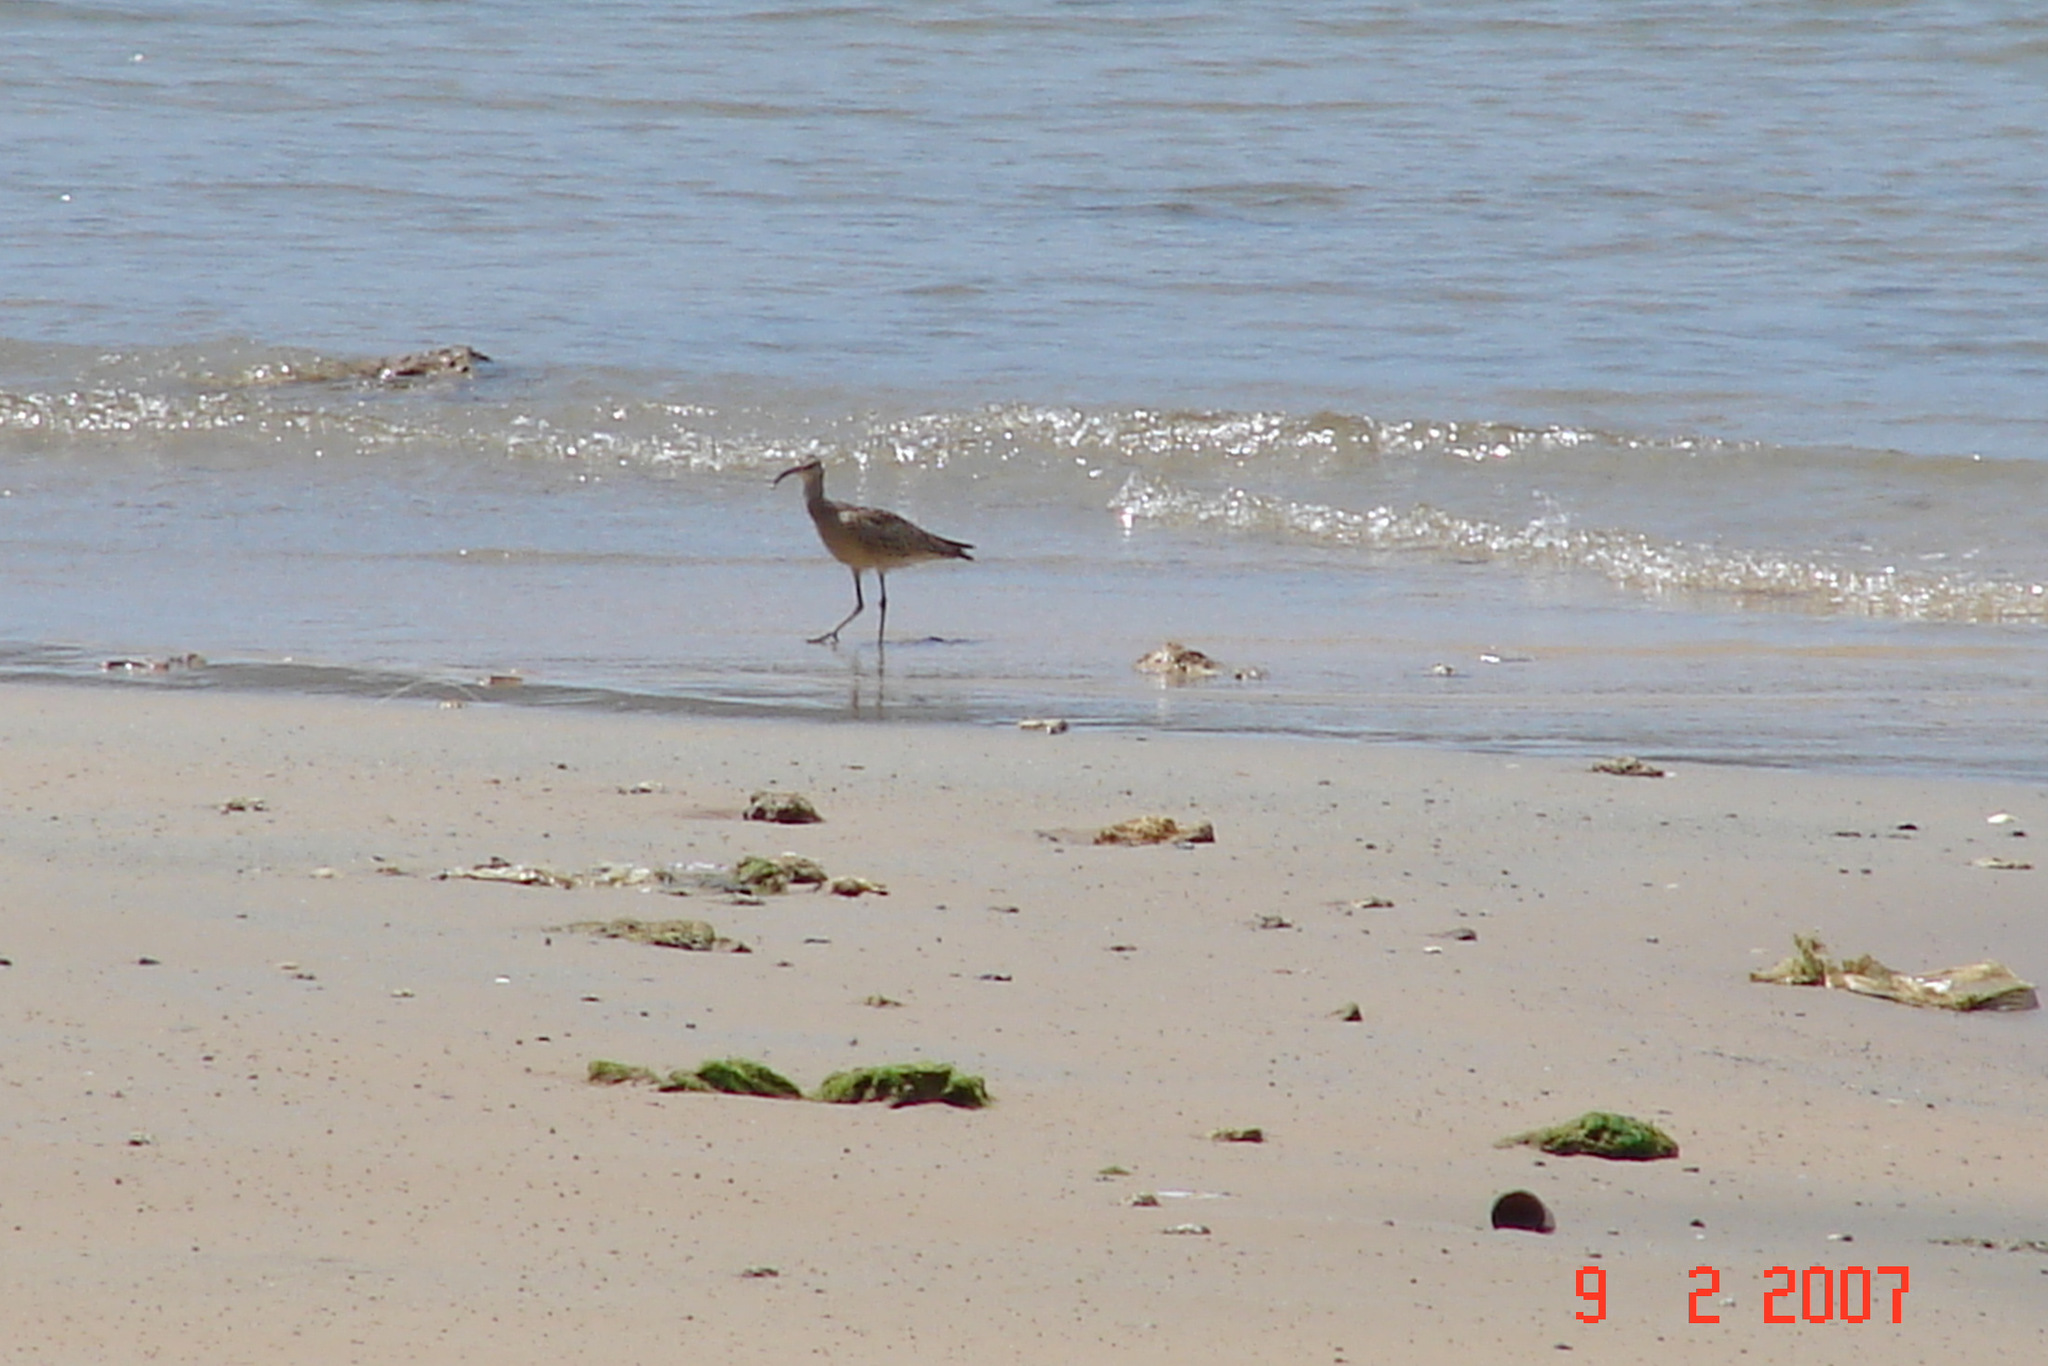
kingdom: Animalia
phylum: Chordata
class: Aves
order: Charadriiformes
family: Scolopacidae
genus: Numenius
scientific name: Numenius phaeopus
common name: Whimbrel
